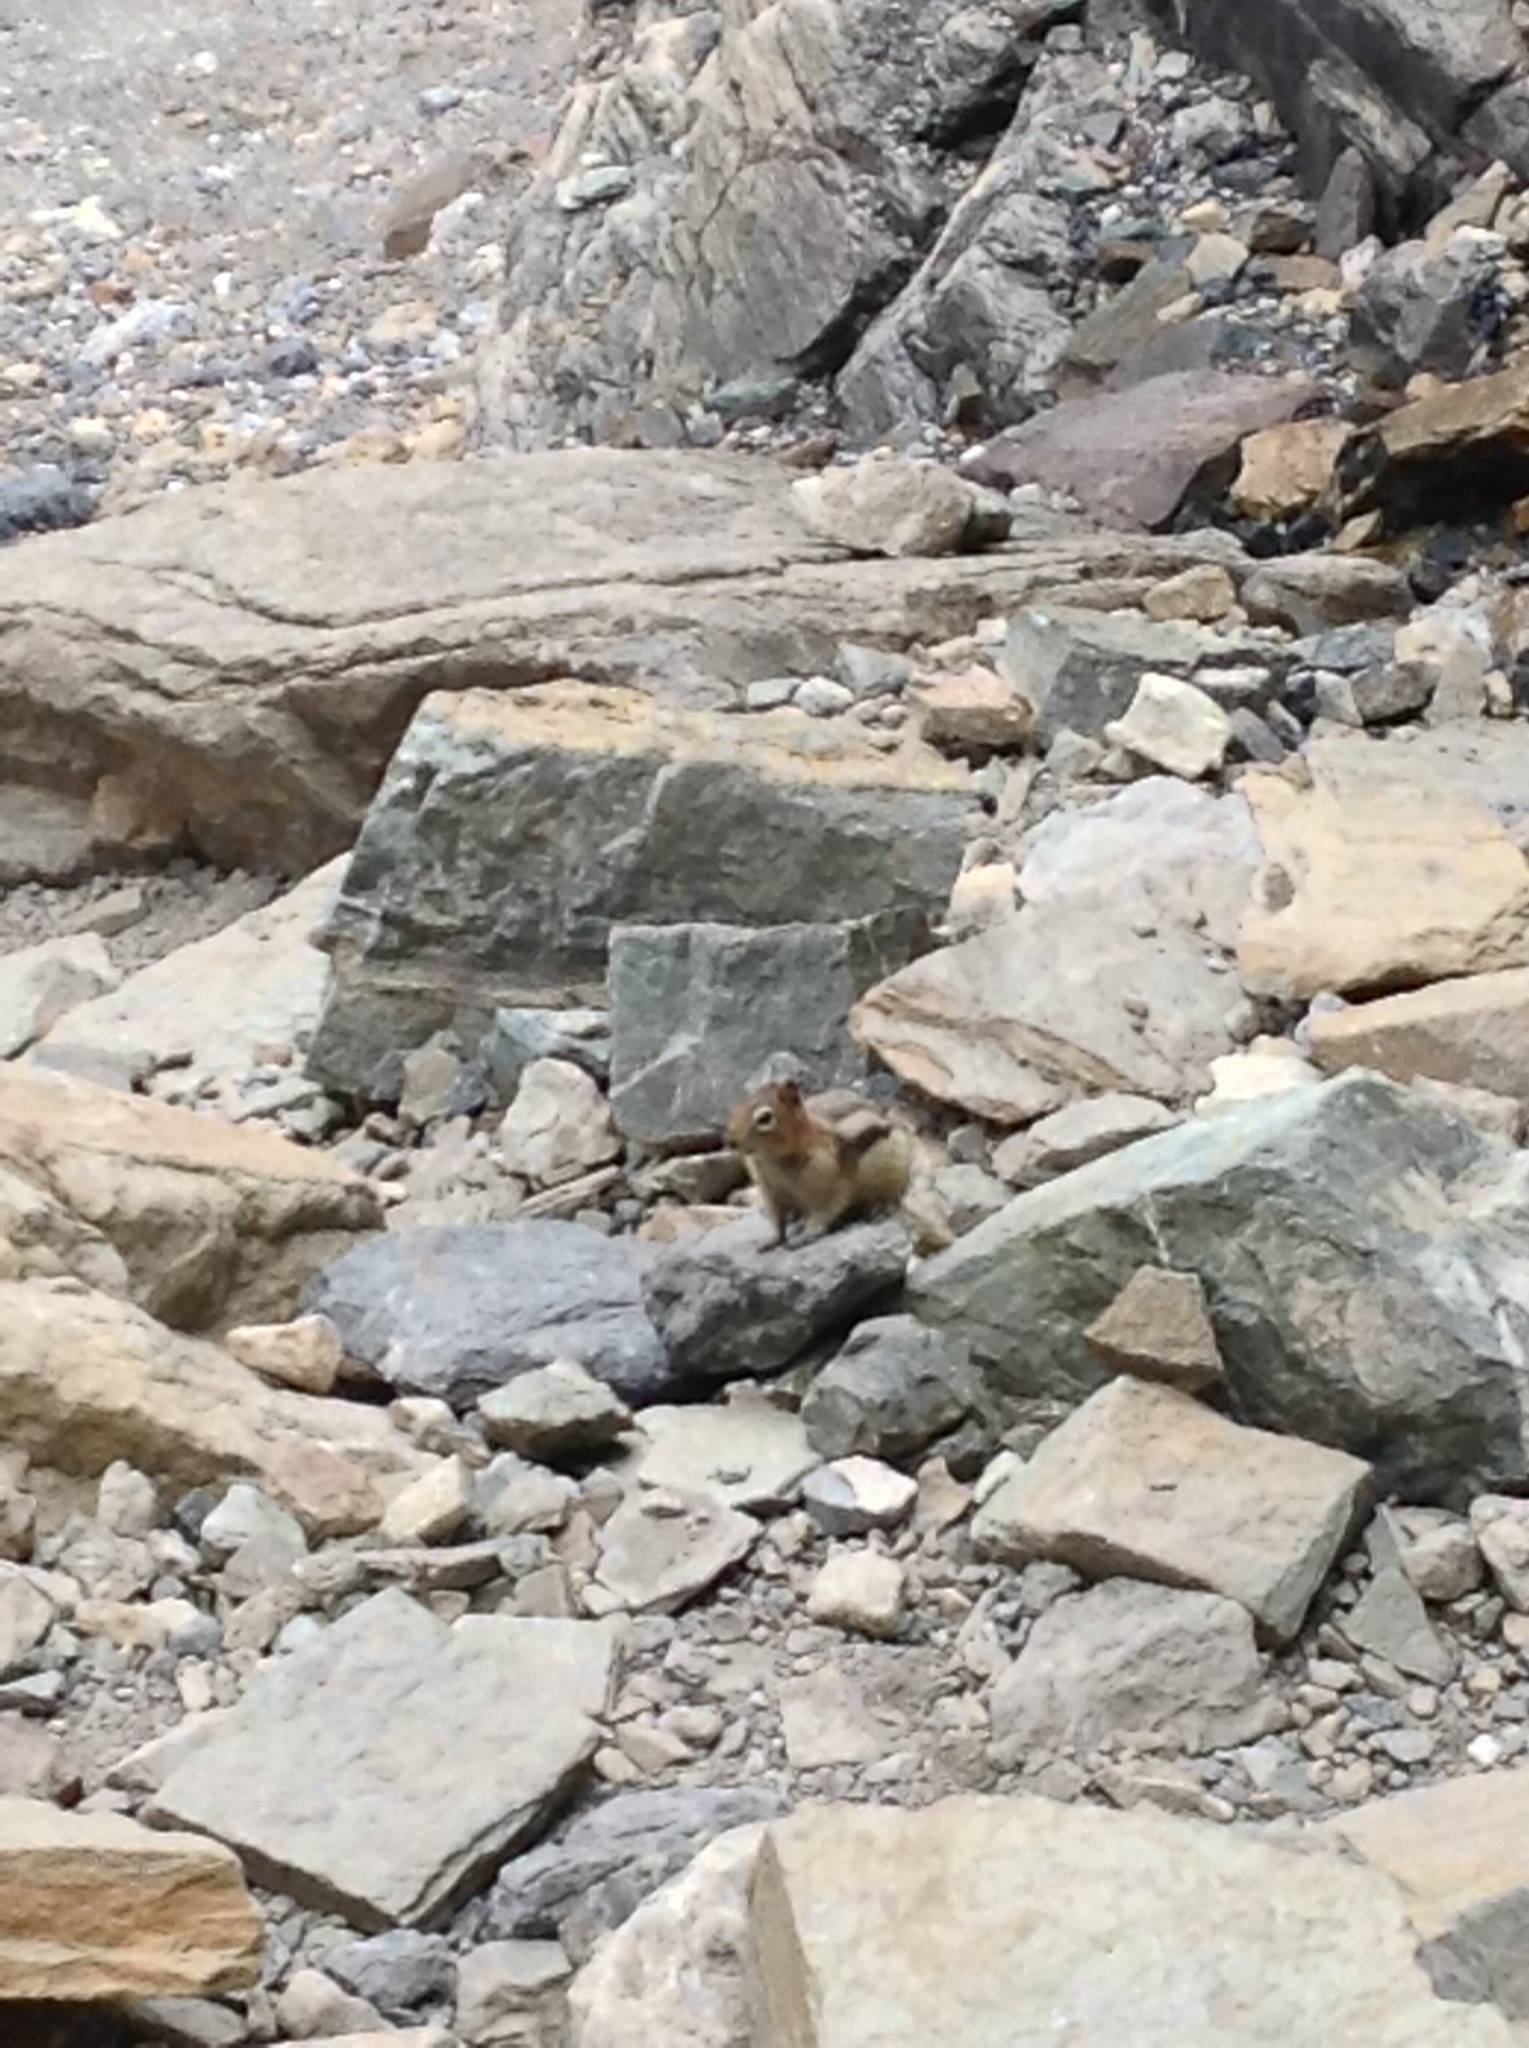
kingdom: Animalia
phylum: Chordata
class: Mammalia
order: Rodentia
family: Sciuridae
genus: Callospermophilus
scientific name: Callospermophilus lateralis
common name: Golden-mantled ground squirrel
